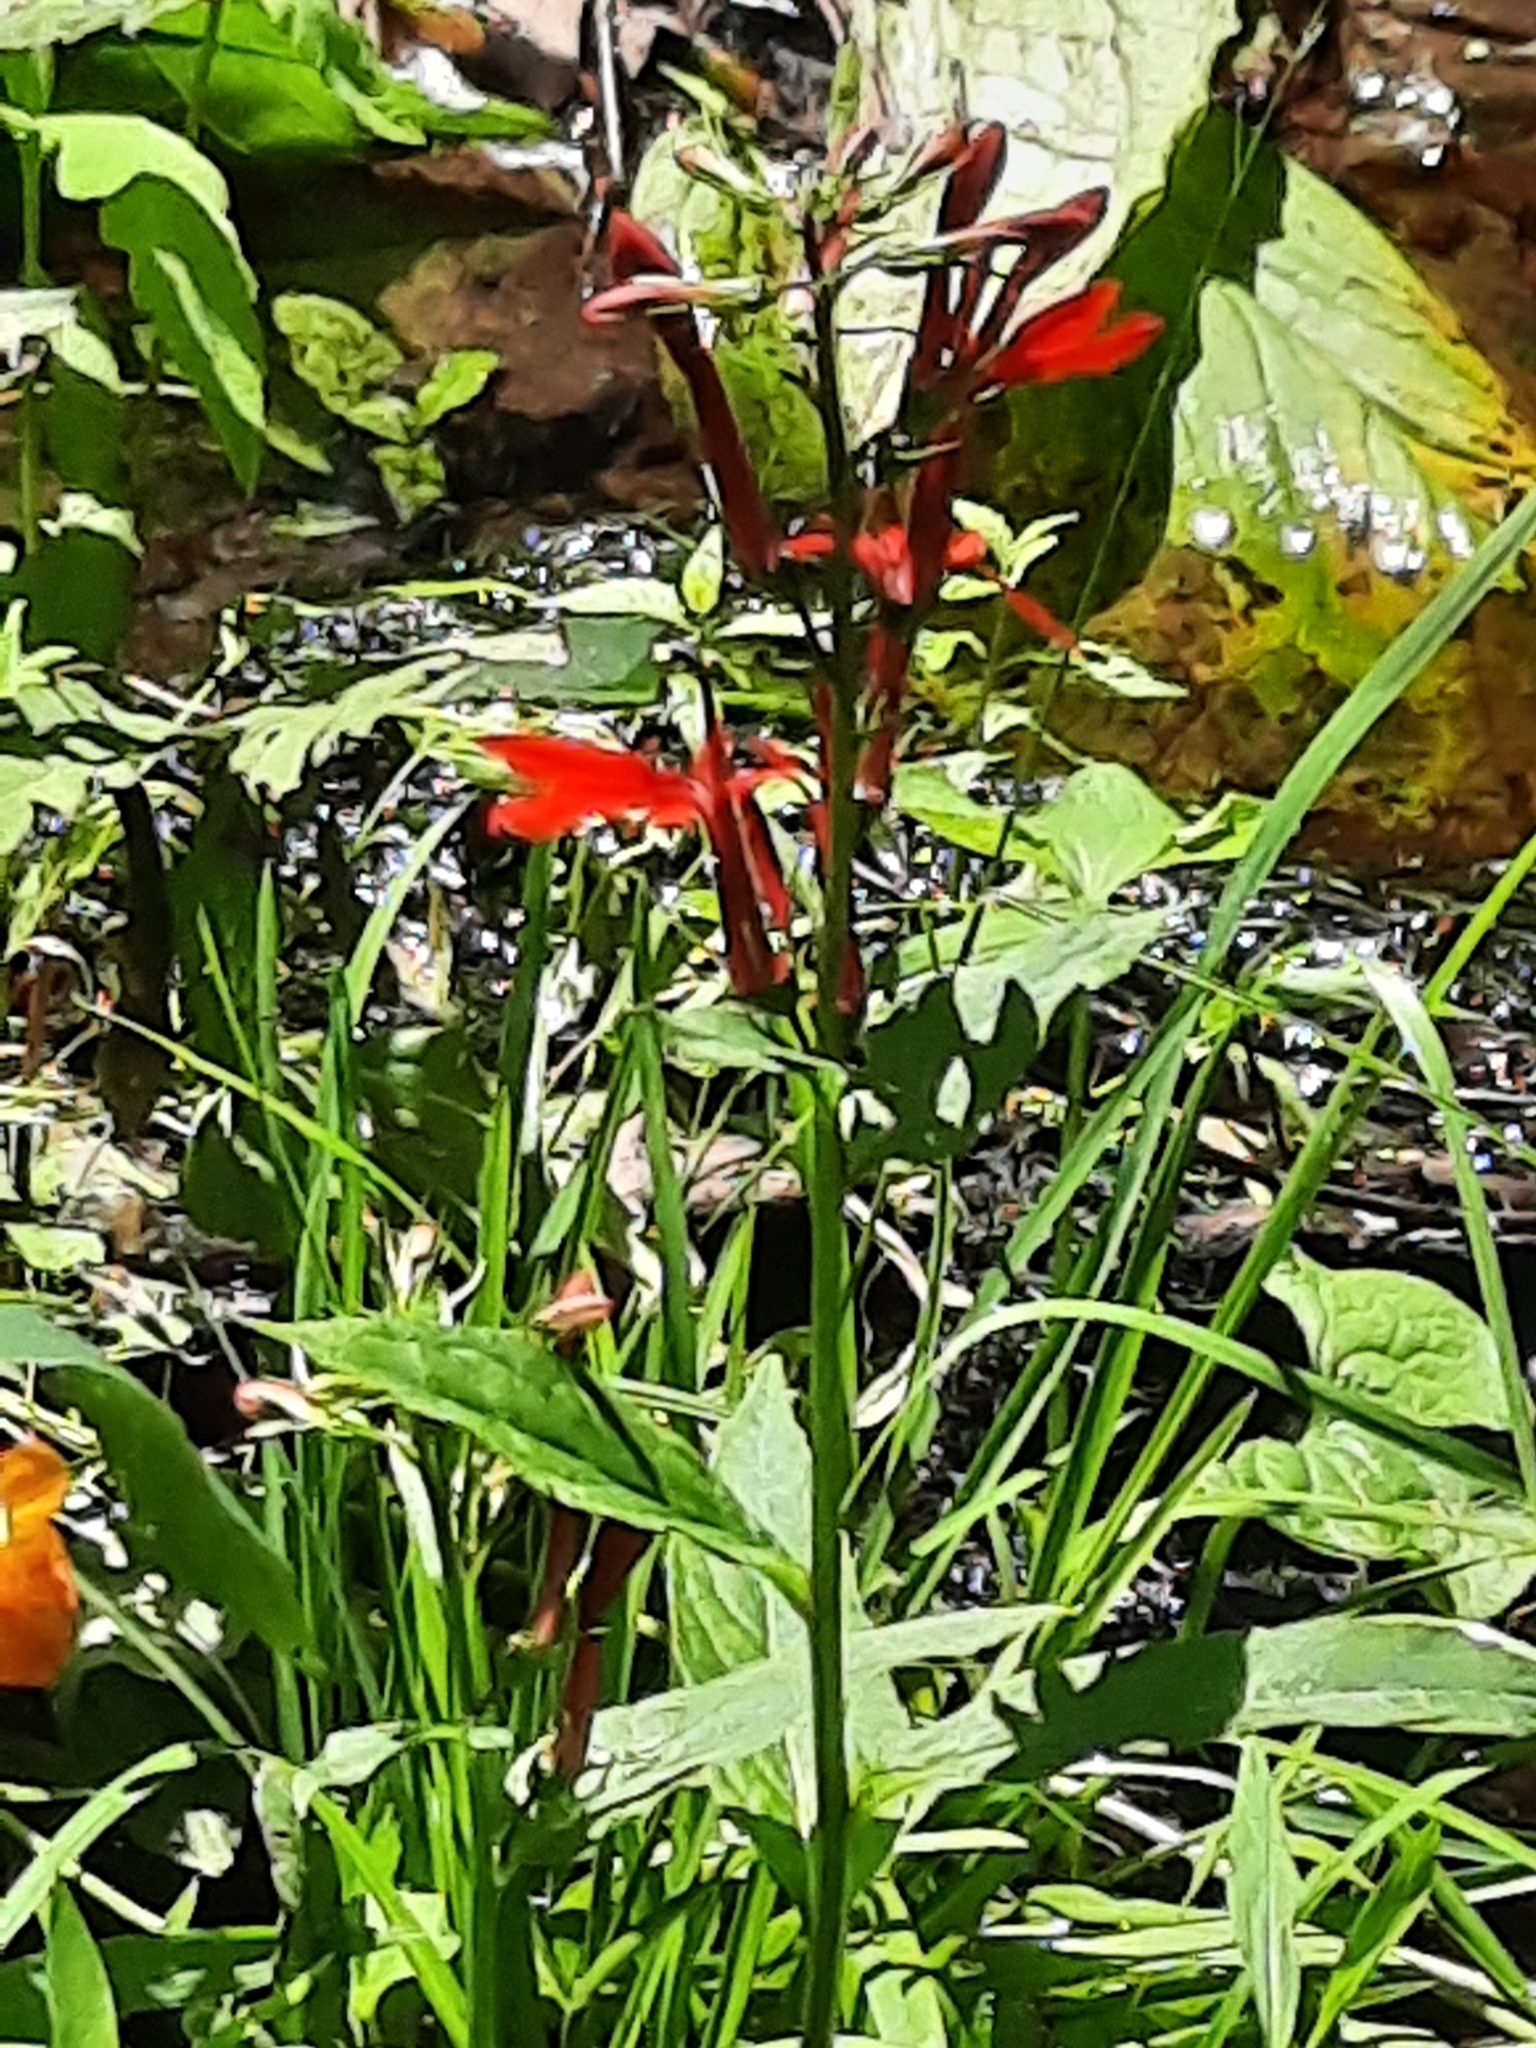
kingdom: Plantae
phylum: Tracheophyta
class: Magnoliopsida
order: Asterales
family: Campanulaceae
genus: Lobelia
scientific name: Lobelia cardinalis
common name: Cardinal flower
